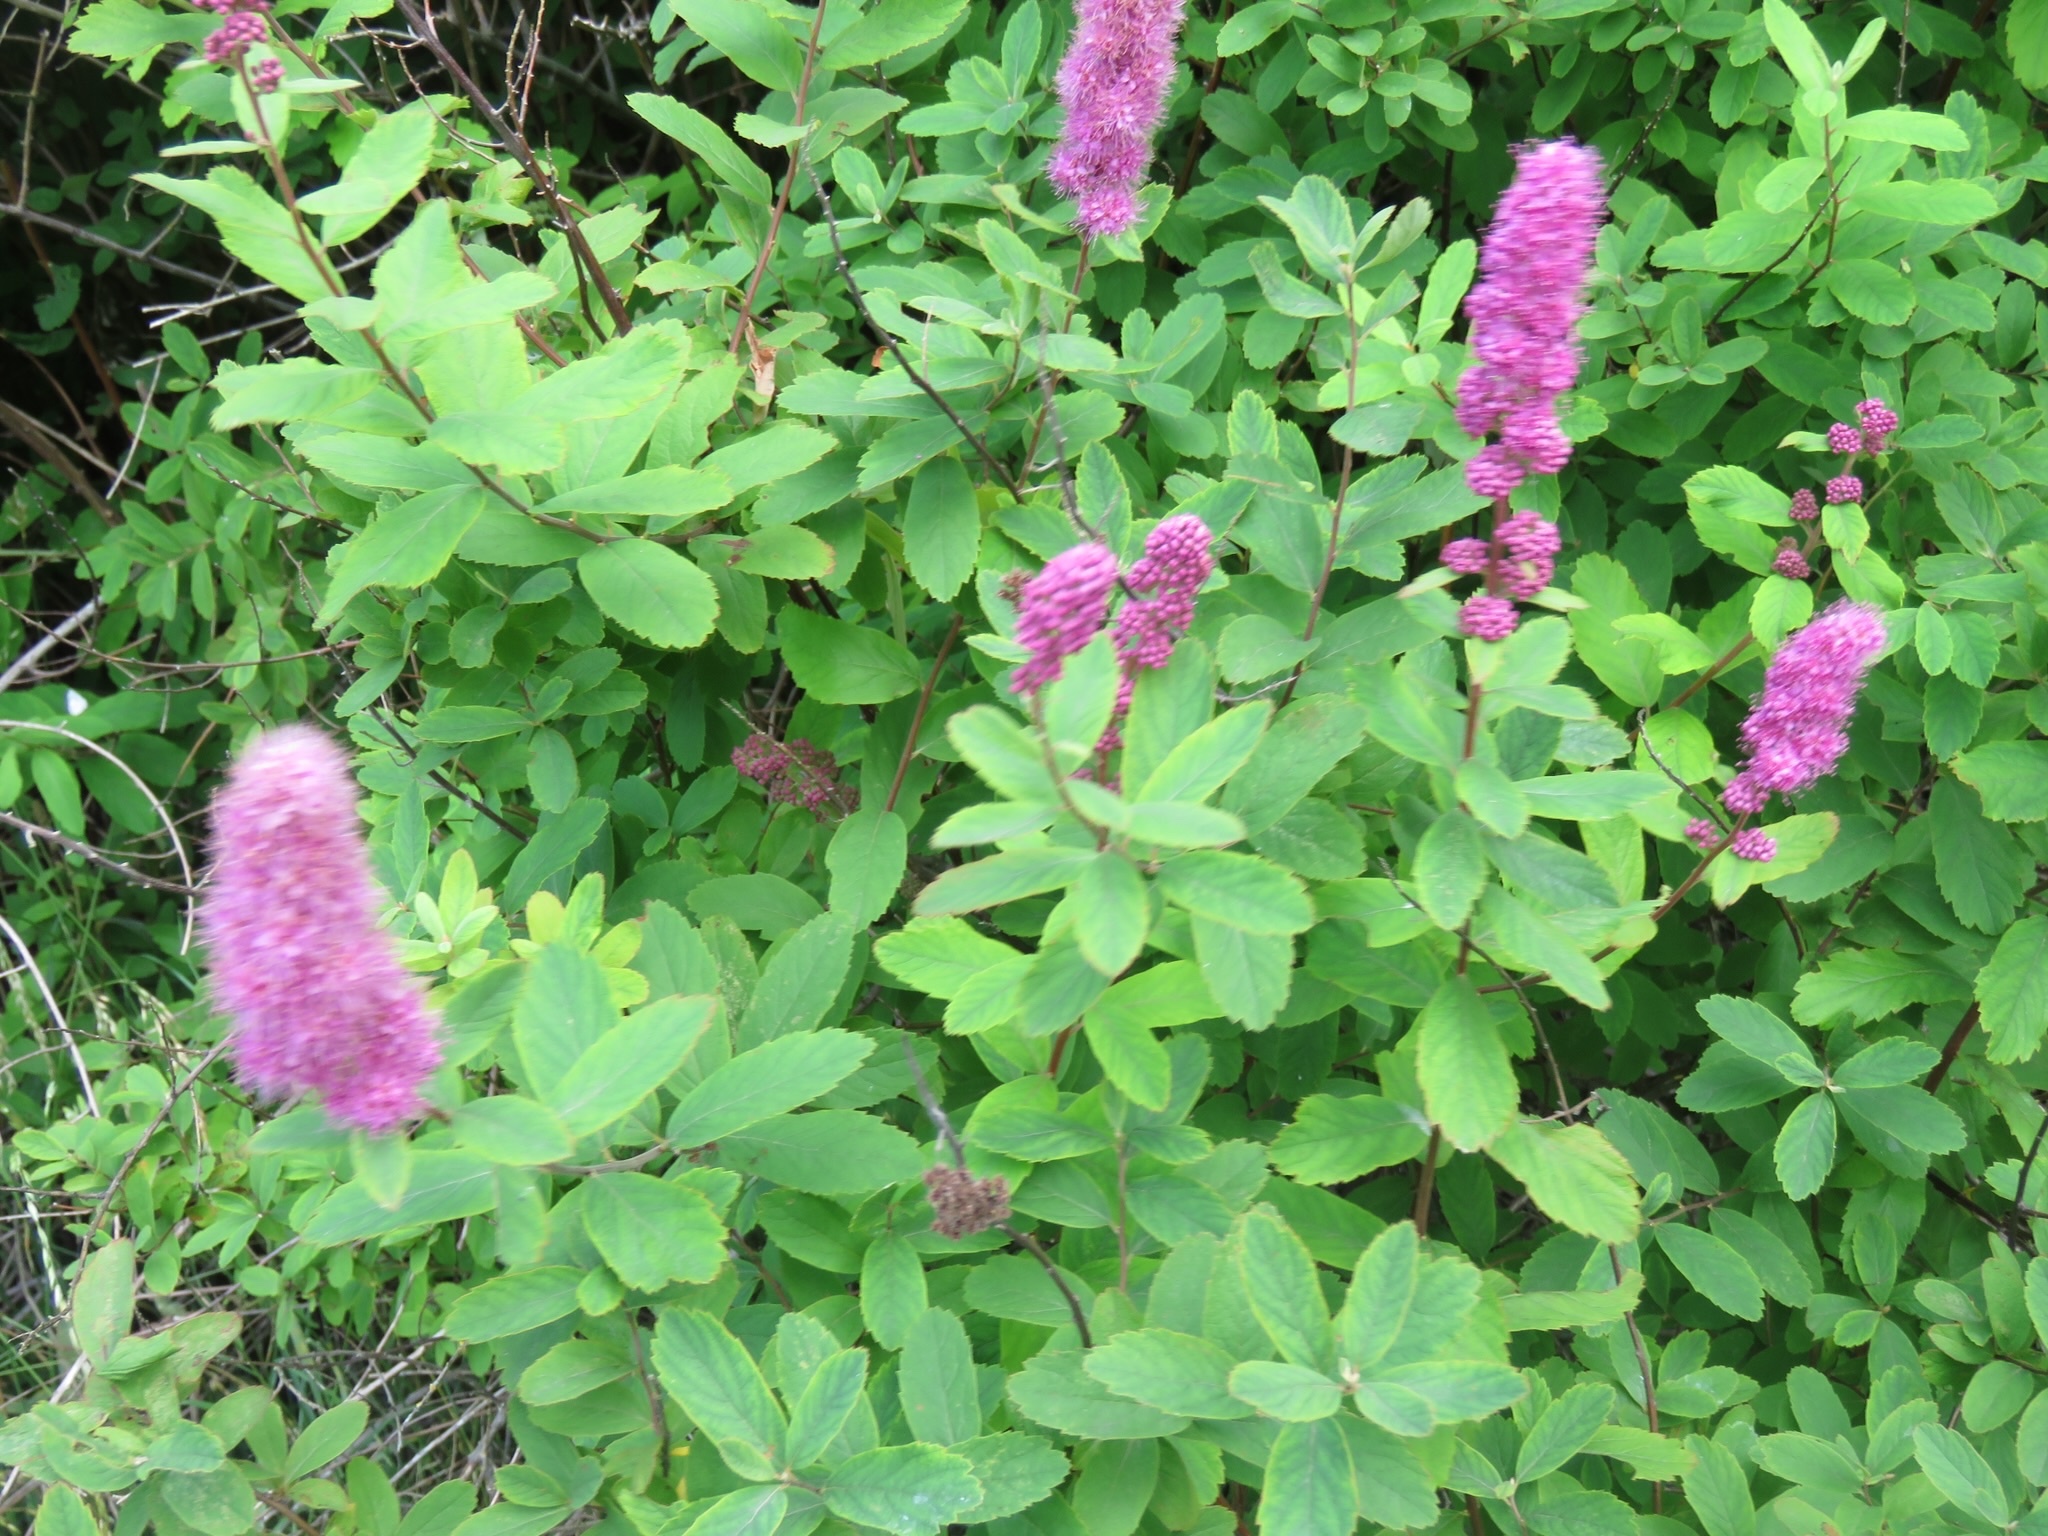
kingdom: Plantae
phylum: Tracheophyta
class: Magnoliopsida
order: Rosales
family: Rosaceae
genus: Spiraea
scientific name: Spiraea douglasii
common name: Steeplebush
